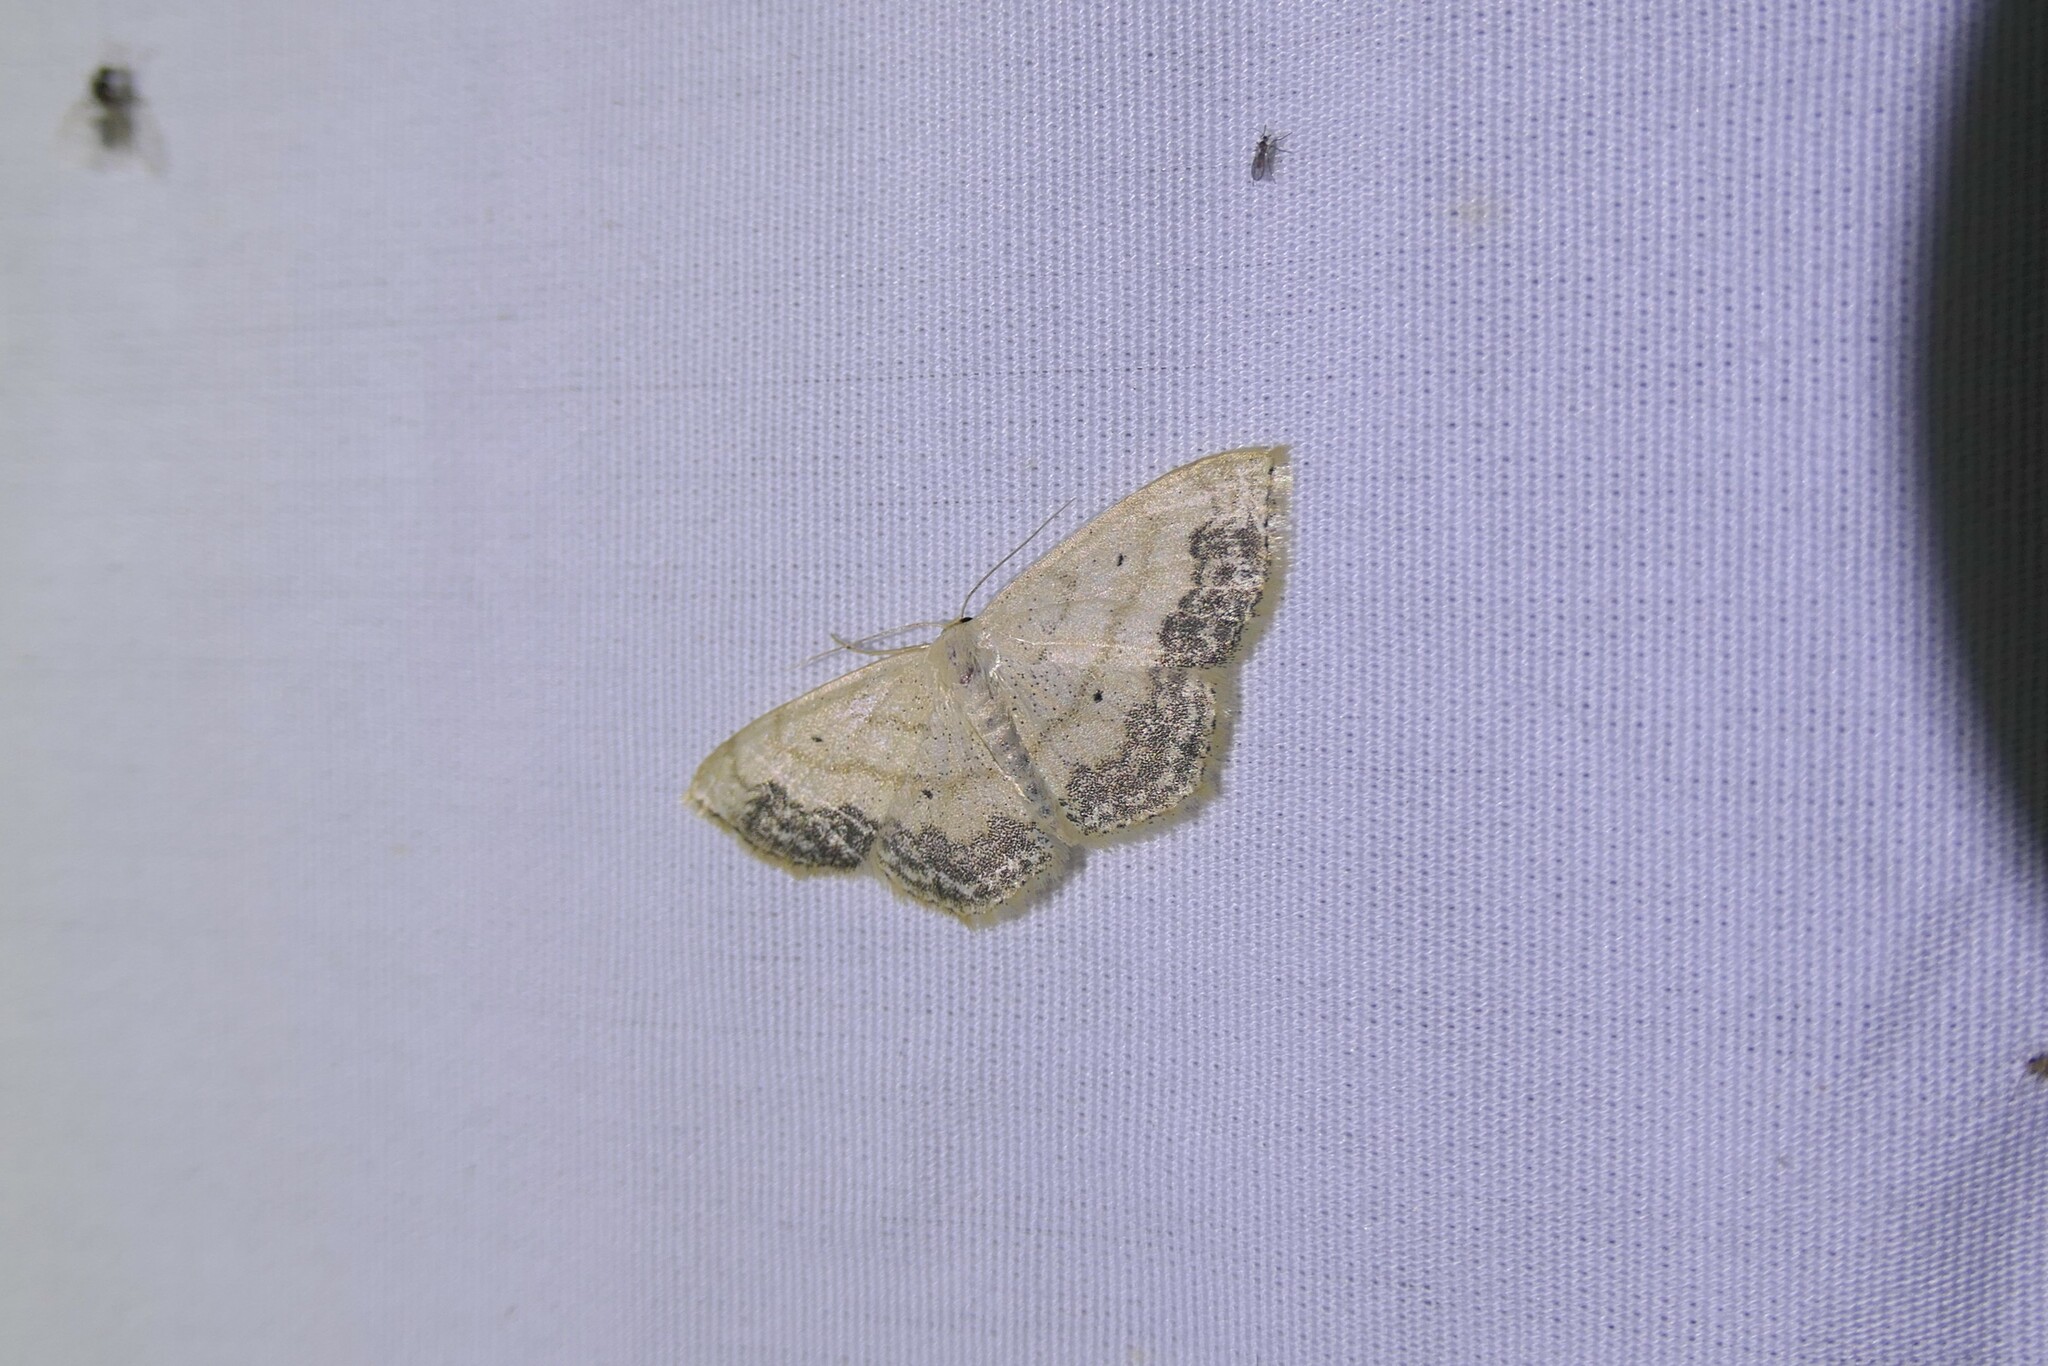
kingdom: Animalia
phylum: Arthropoda
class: Insecta
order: Lepidoptera
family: Geometridae
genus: Scopula
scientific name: Scopula limboundata
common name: Large lace border
